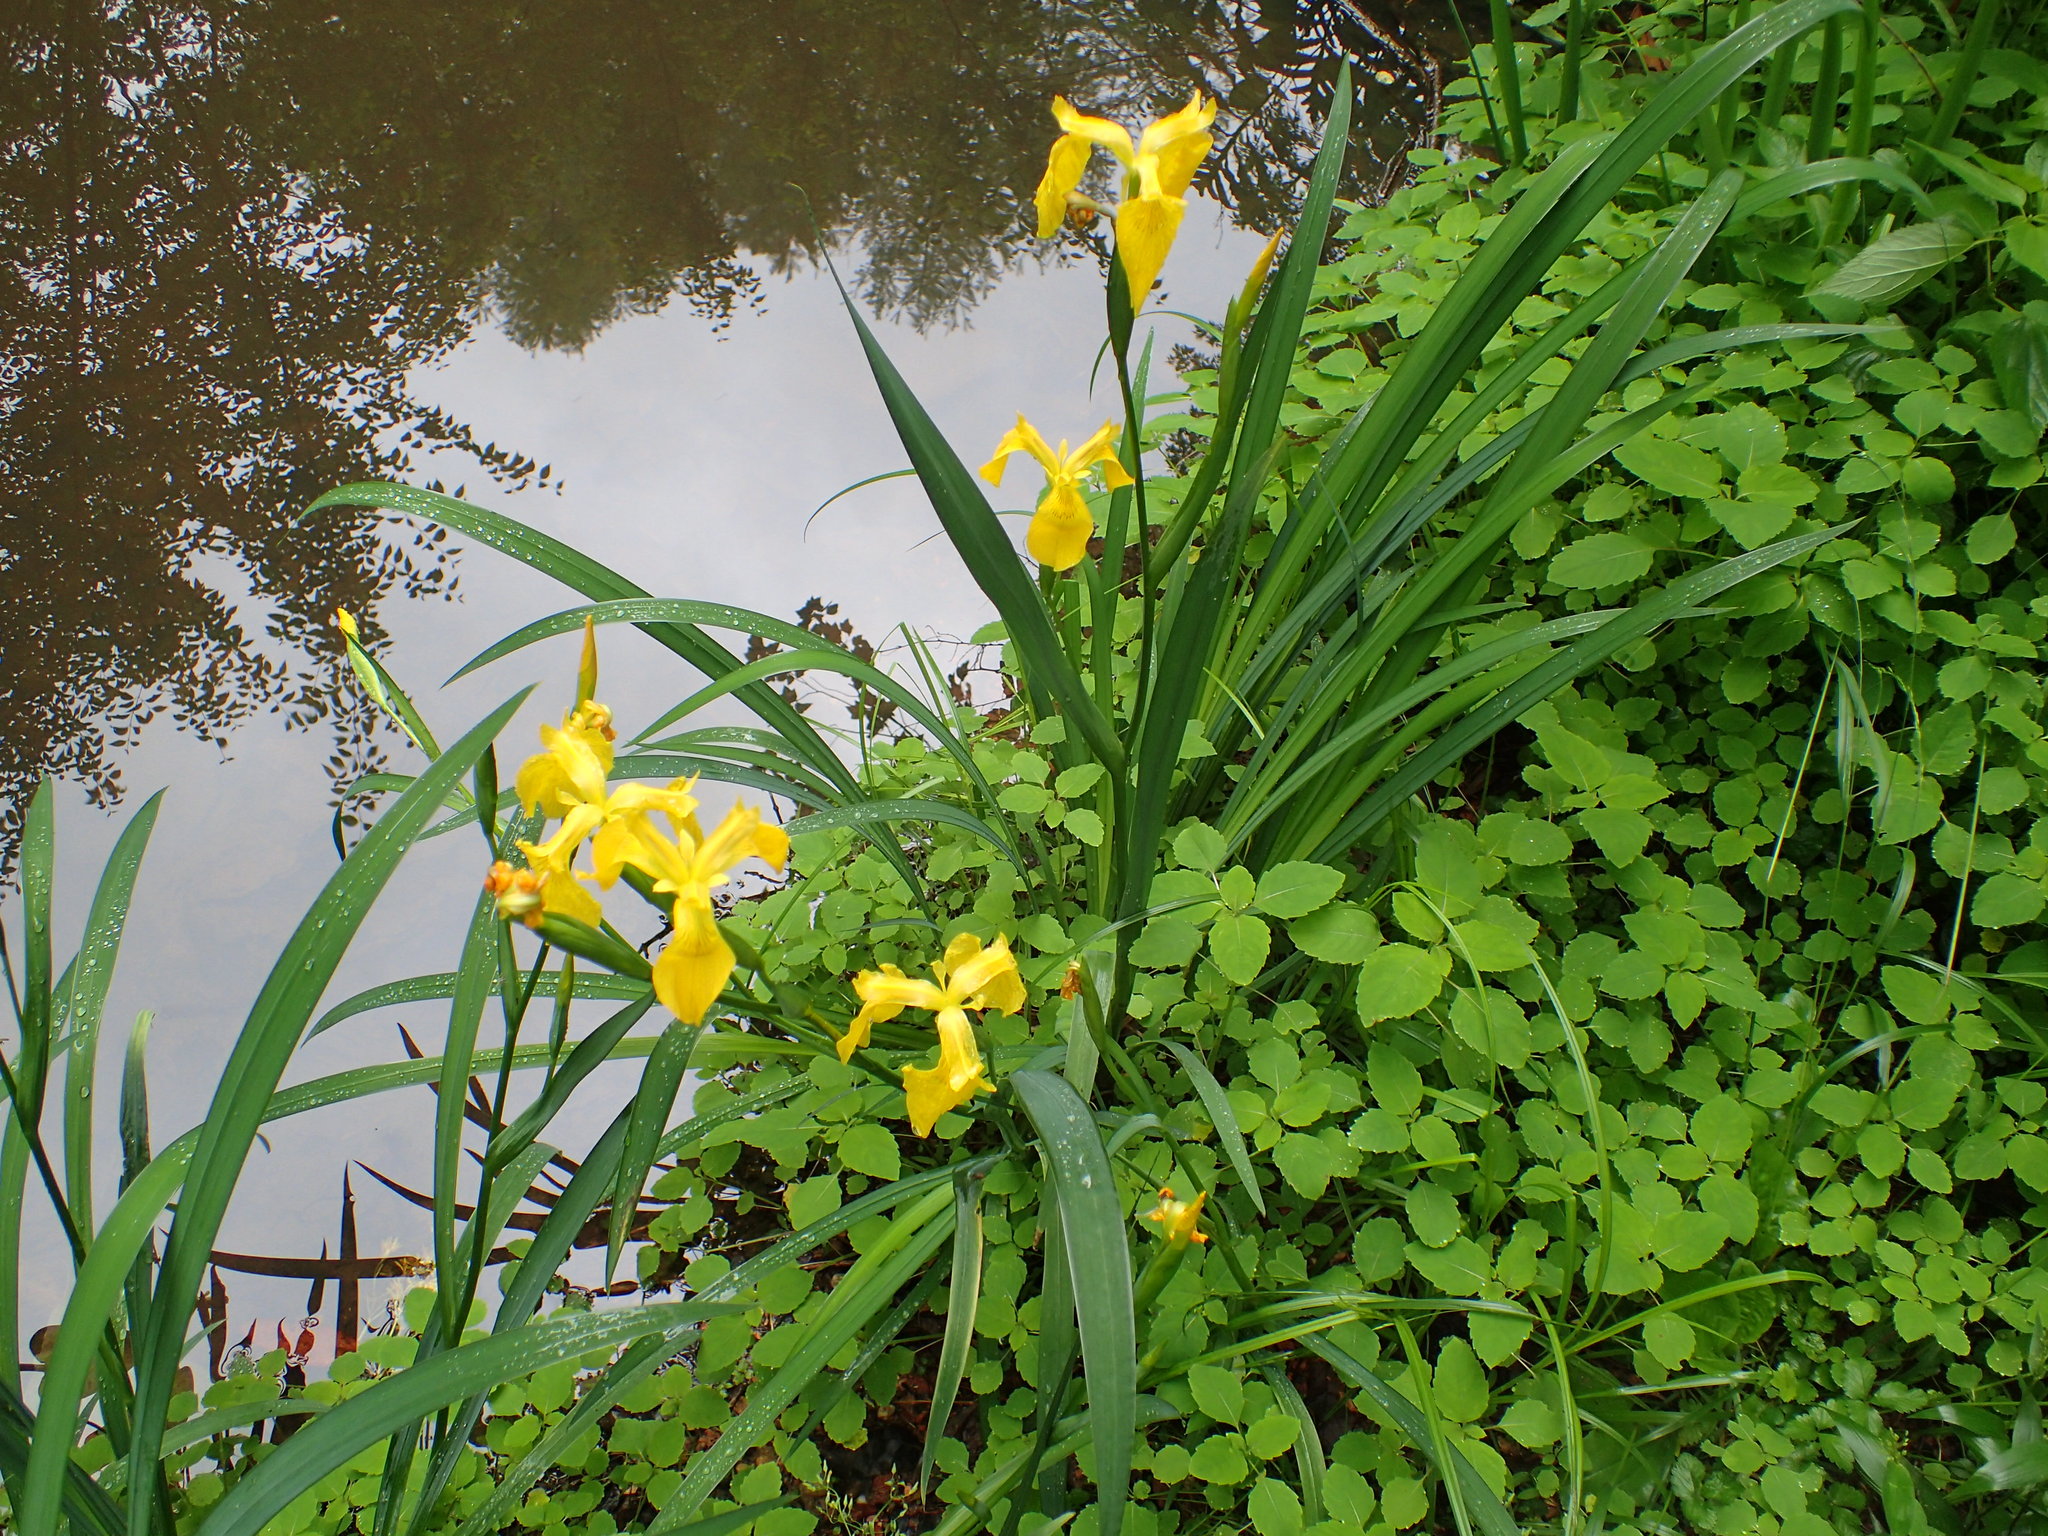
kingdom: Plantae
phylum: Tracheophyta
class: Liliopsida
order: Asparagales
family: Iridaceae
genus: Iris
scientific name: Iris pseudacorus
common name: Yellow flag
